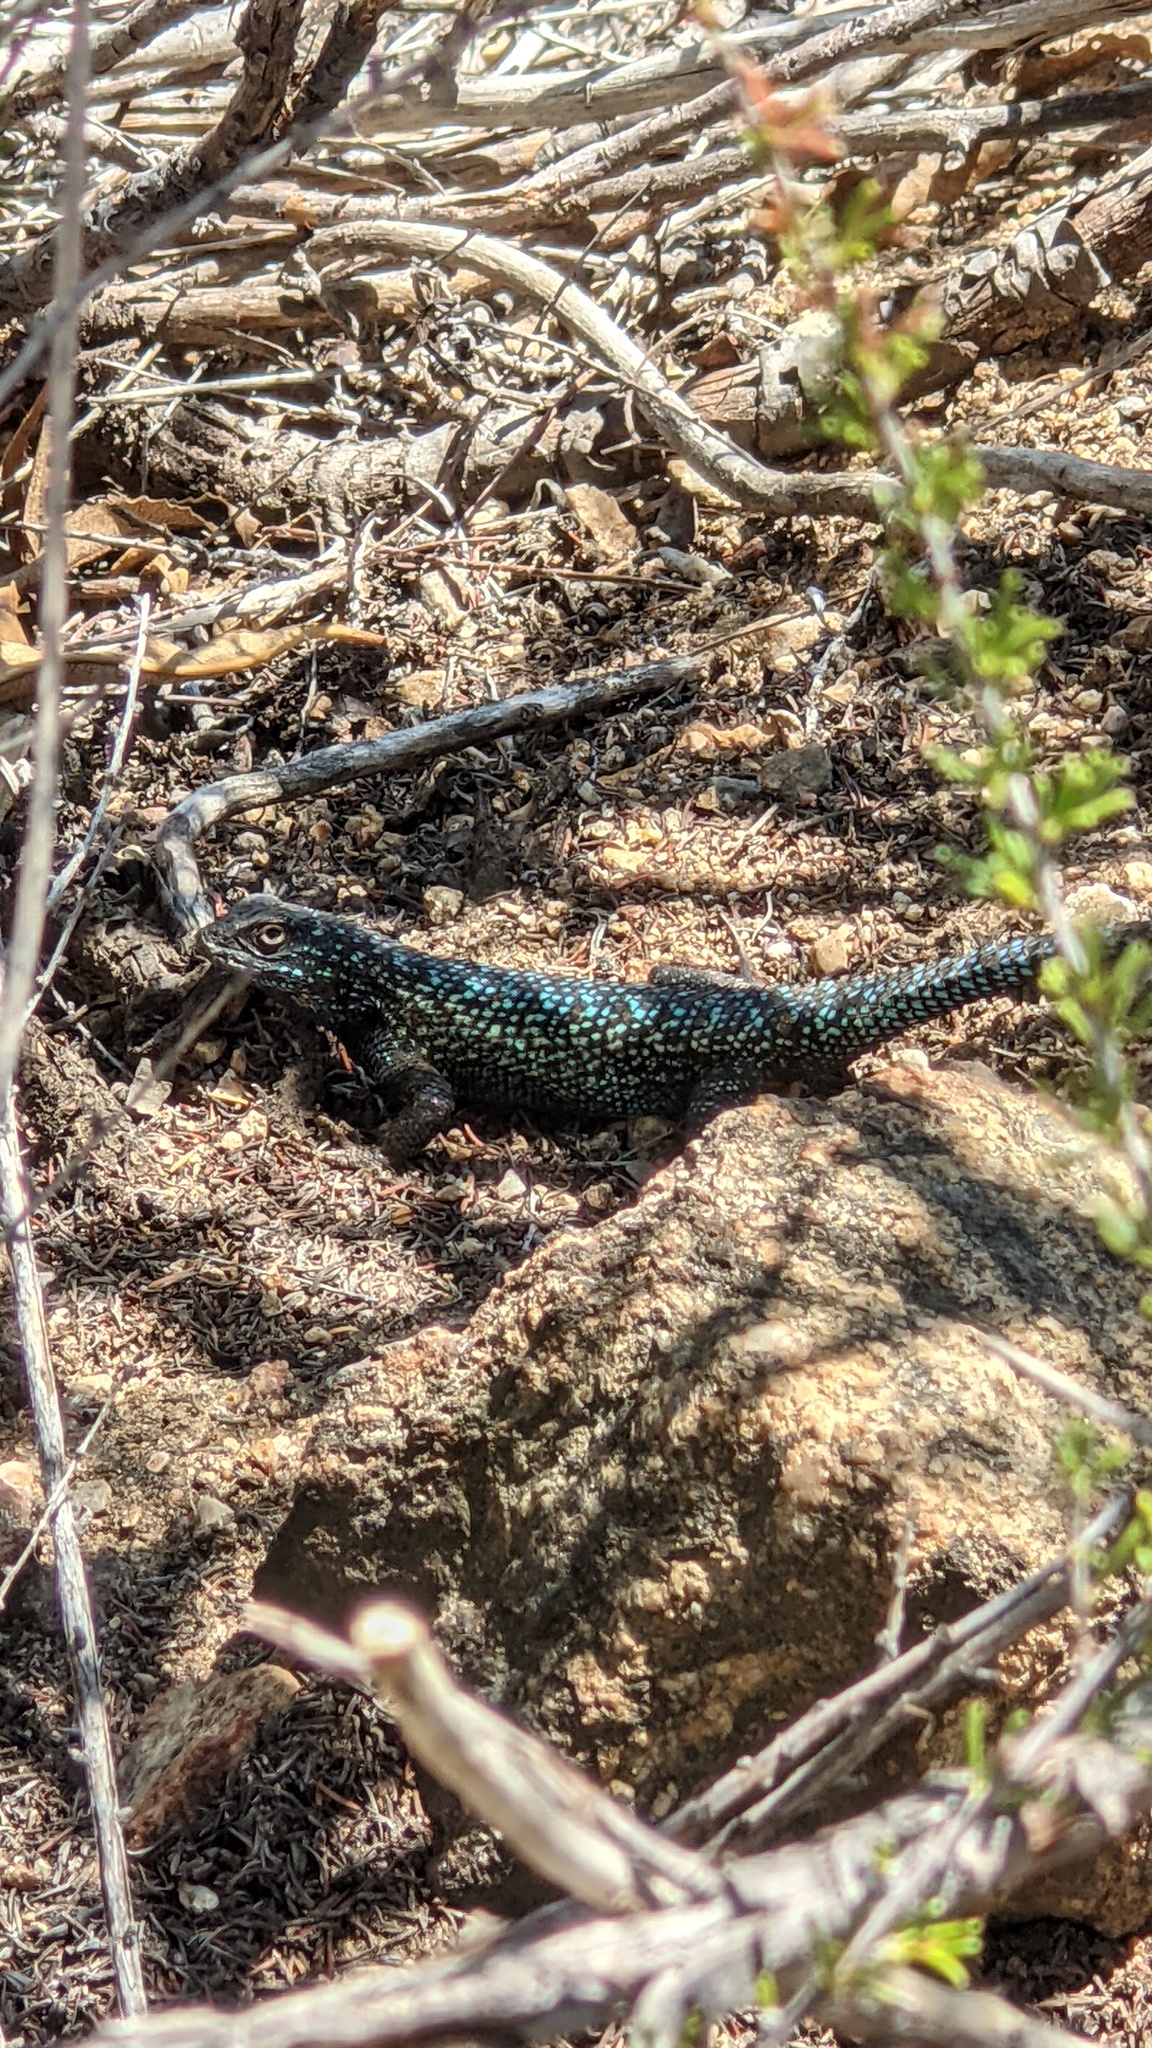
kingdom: Animalia
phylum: Chordata
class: Squamata
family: Phrynosomatidae
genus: Sceloporus
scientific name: Sceloporus occidentalis
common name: Western fence lizard
